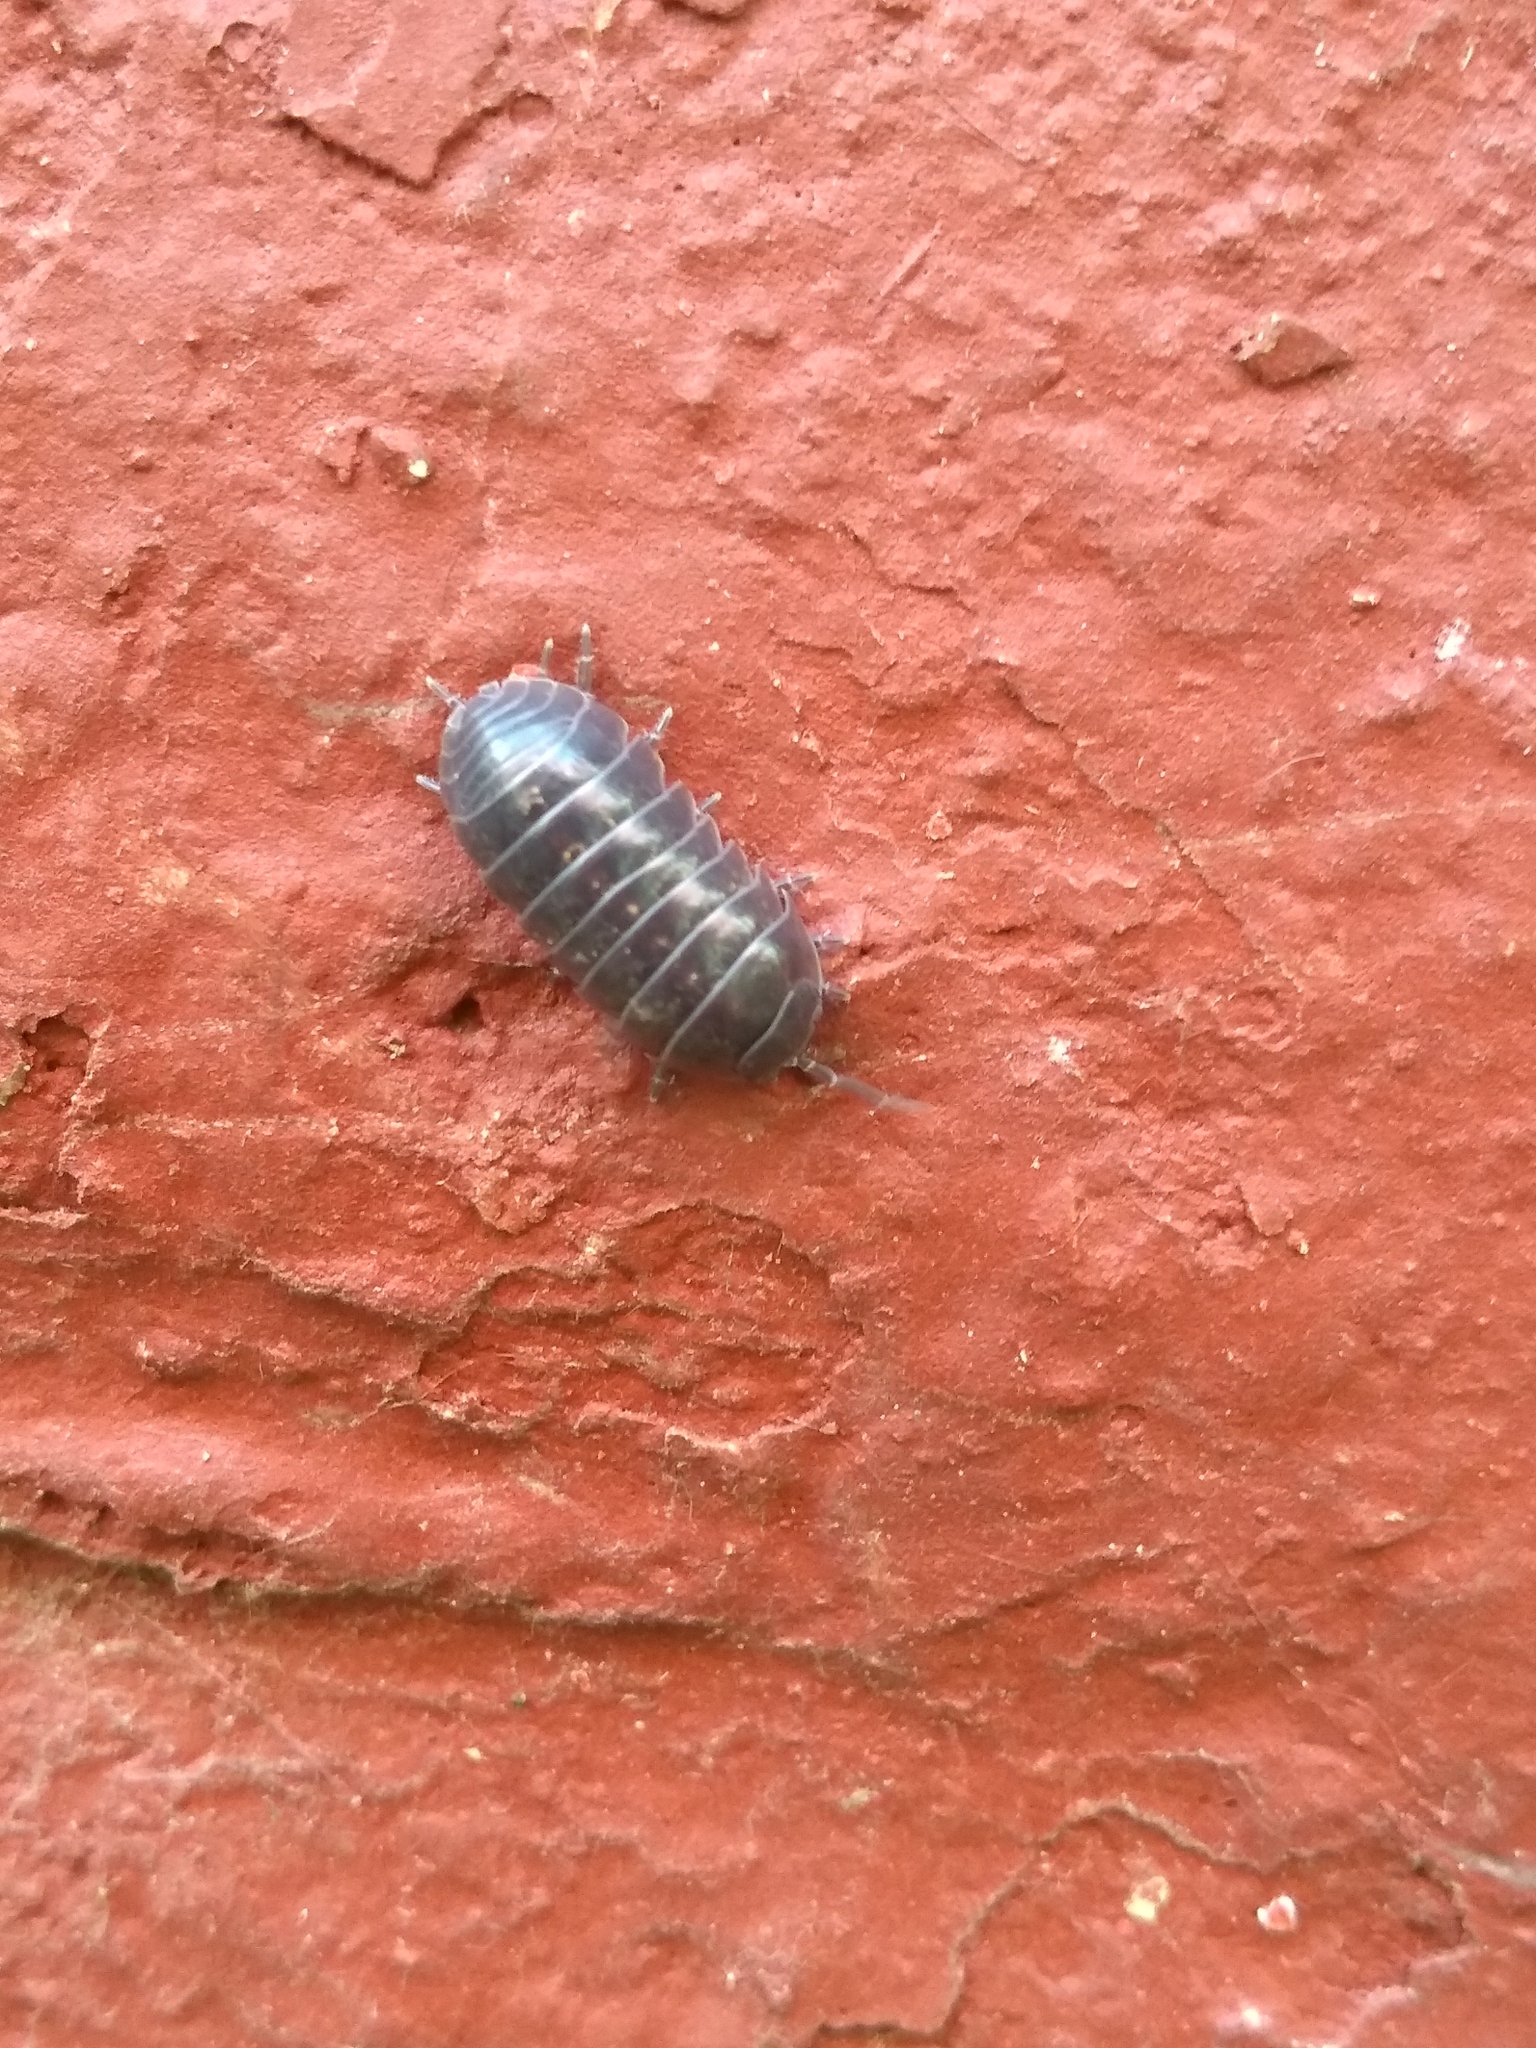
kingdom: Animalia
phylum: Arthropoda
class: Malacostraca
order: Isopoda
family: Armadillidiidae
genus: Armadillidium
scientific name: Armadillidium vulgare
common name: Common pill woodlouse
